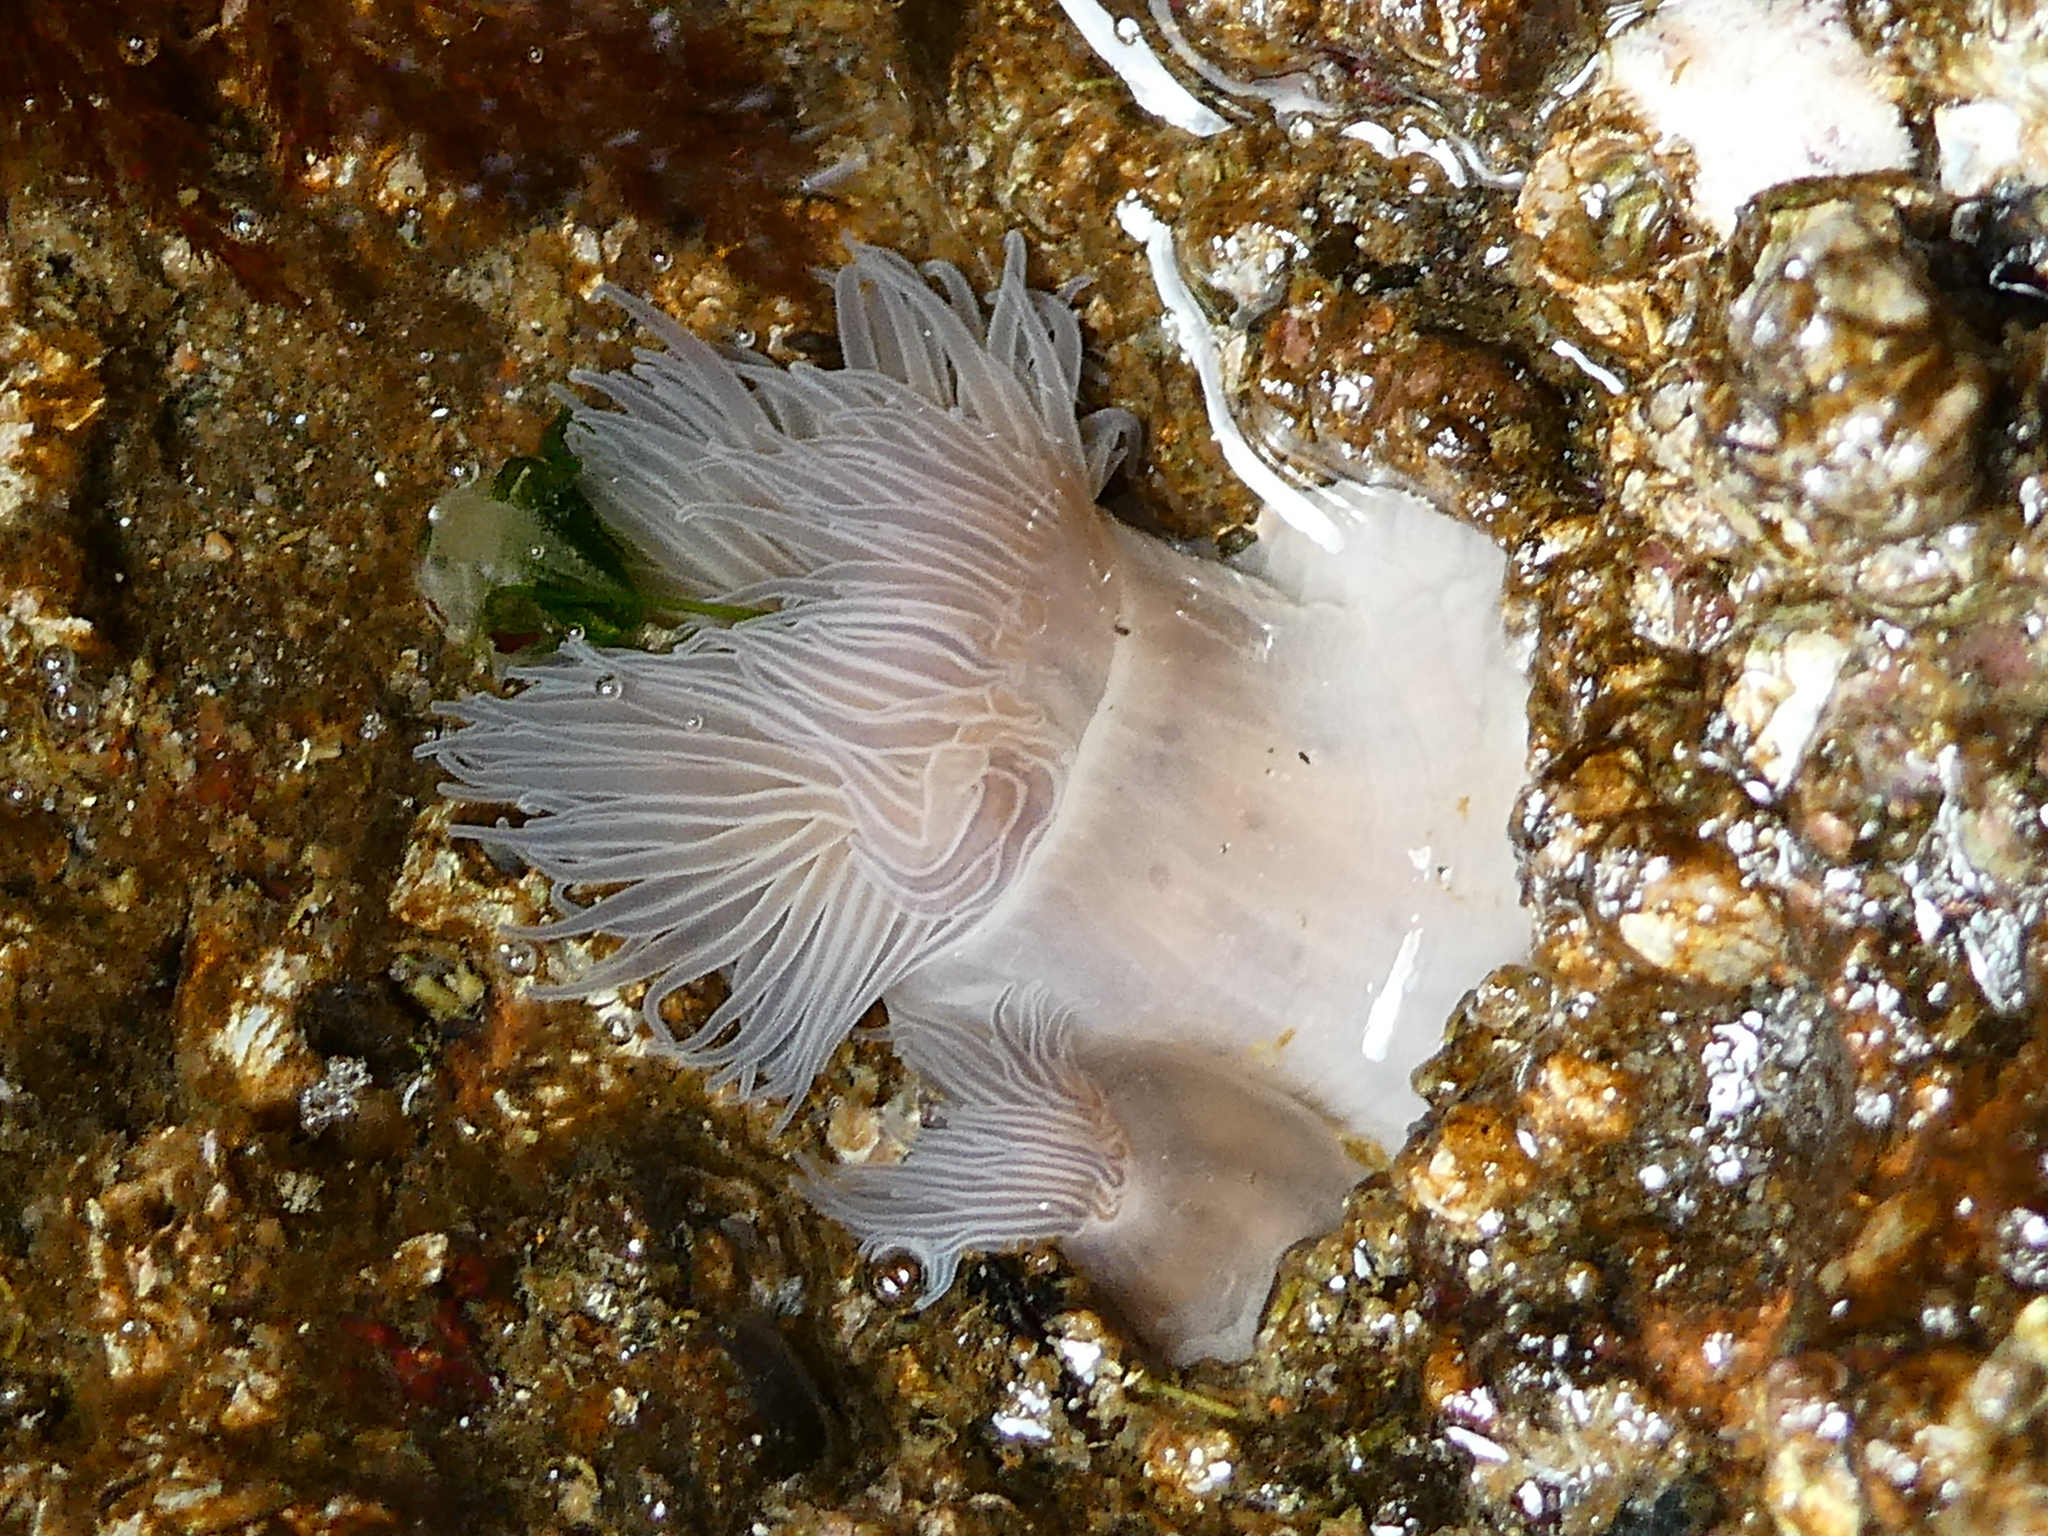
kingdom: Animalia
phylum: Cnidaria
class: Anthozoa
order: Actiniaria
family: Metridiidae
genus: Metridium
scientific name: Metridium senile
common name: Clonal plumose anemone
